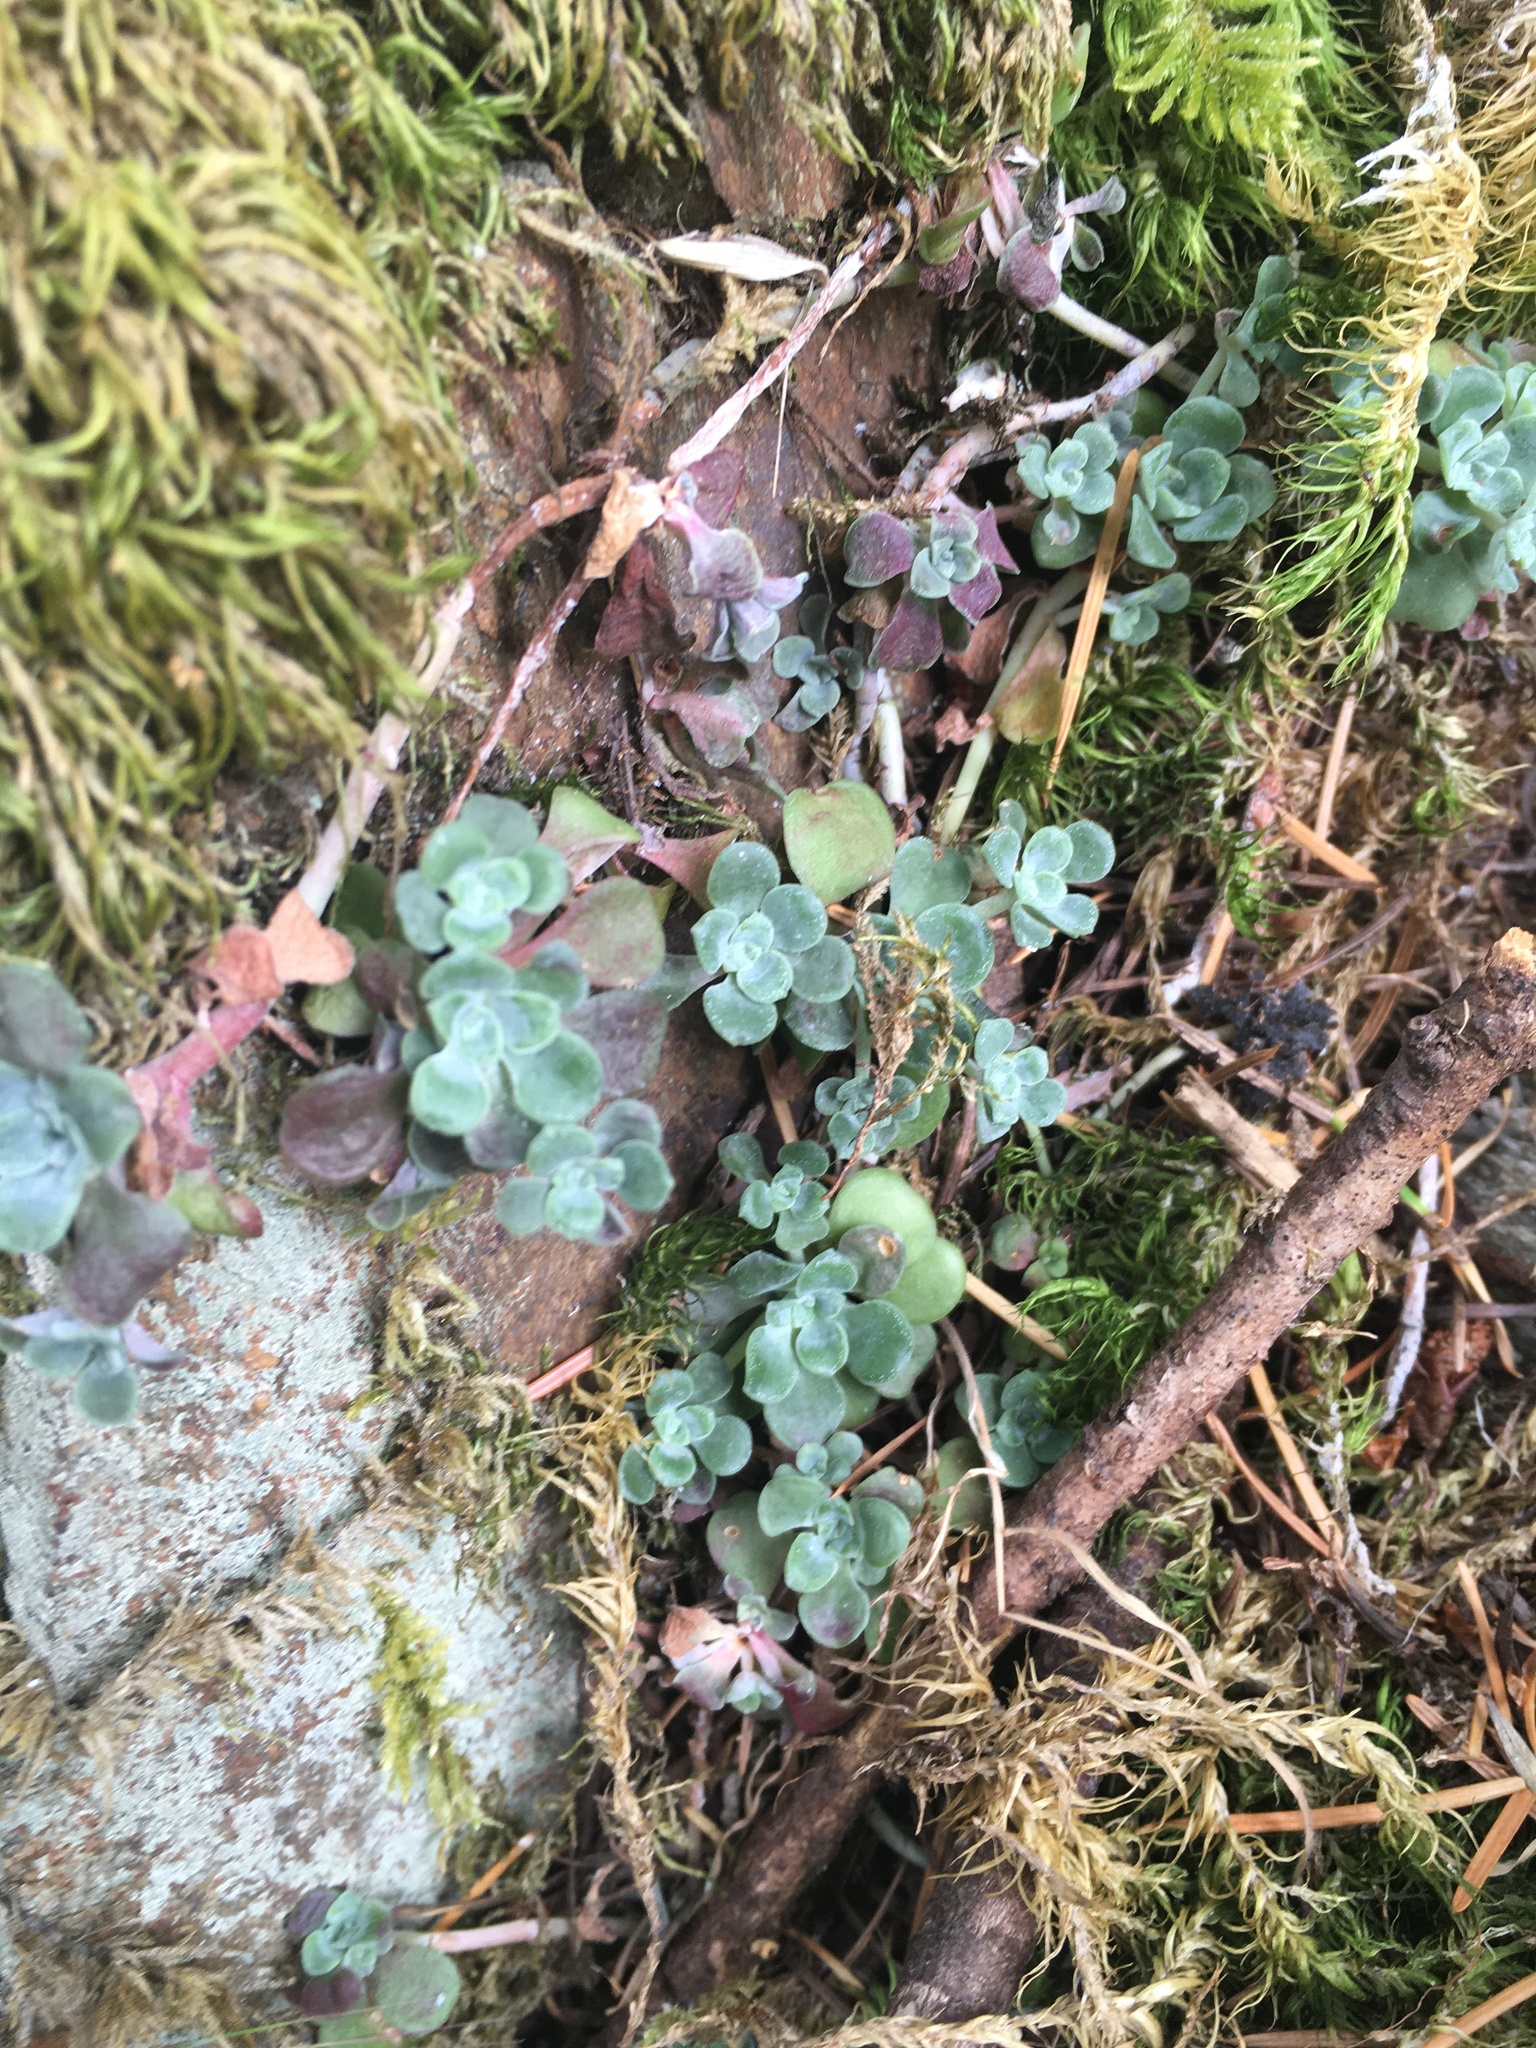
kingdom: Plantae
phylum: Tracheophyta
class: Magnoliopsida
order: Saxifragales
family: Crassulaceae
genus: Sedum
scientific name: Sedum spathulifolium
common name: Colorado stonecrop
